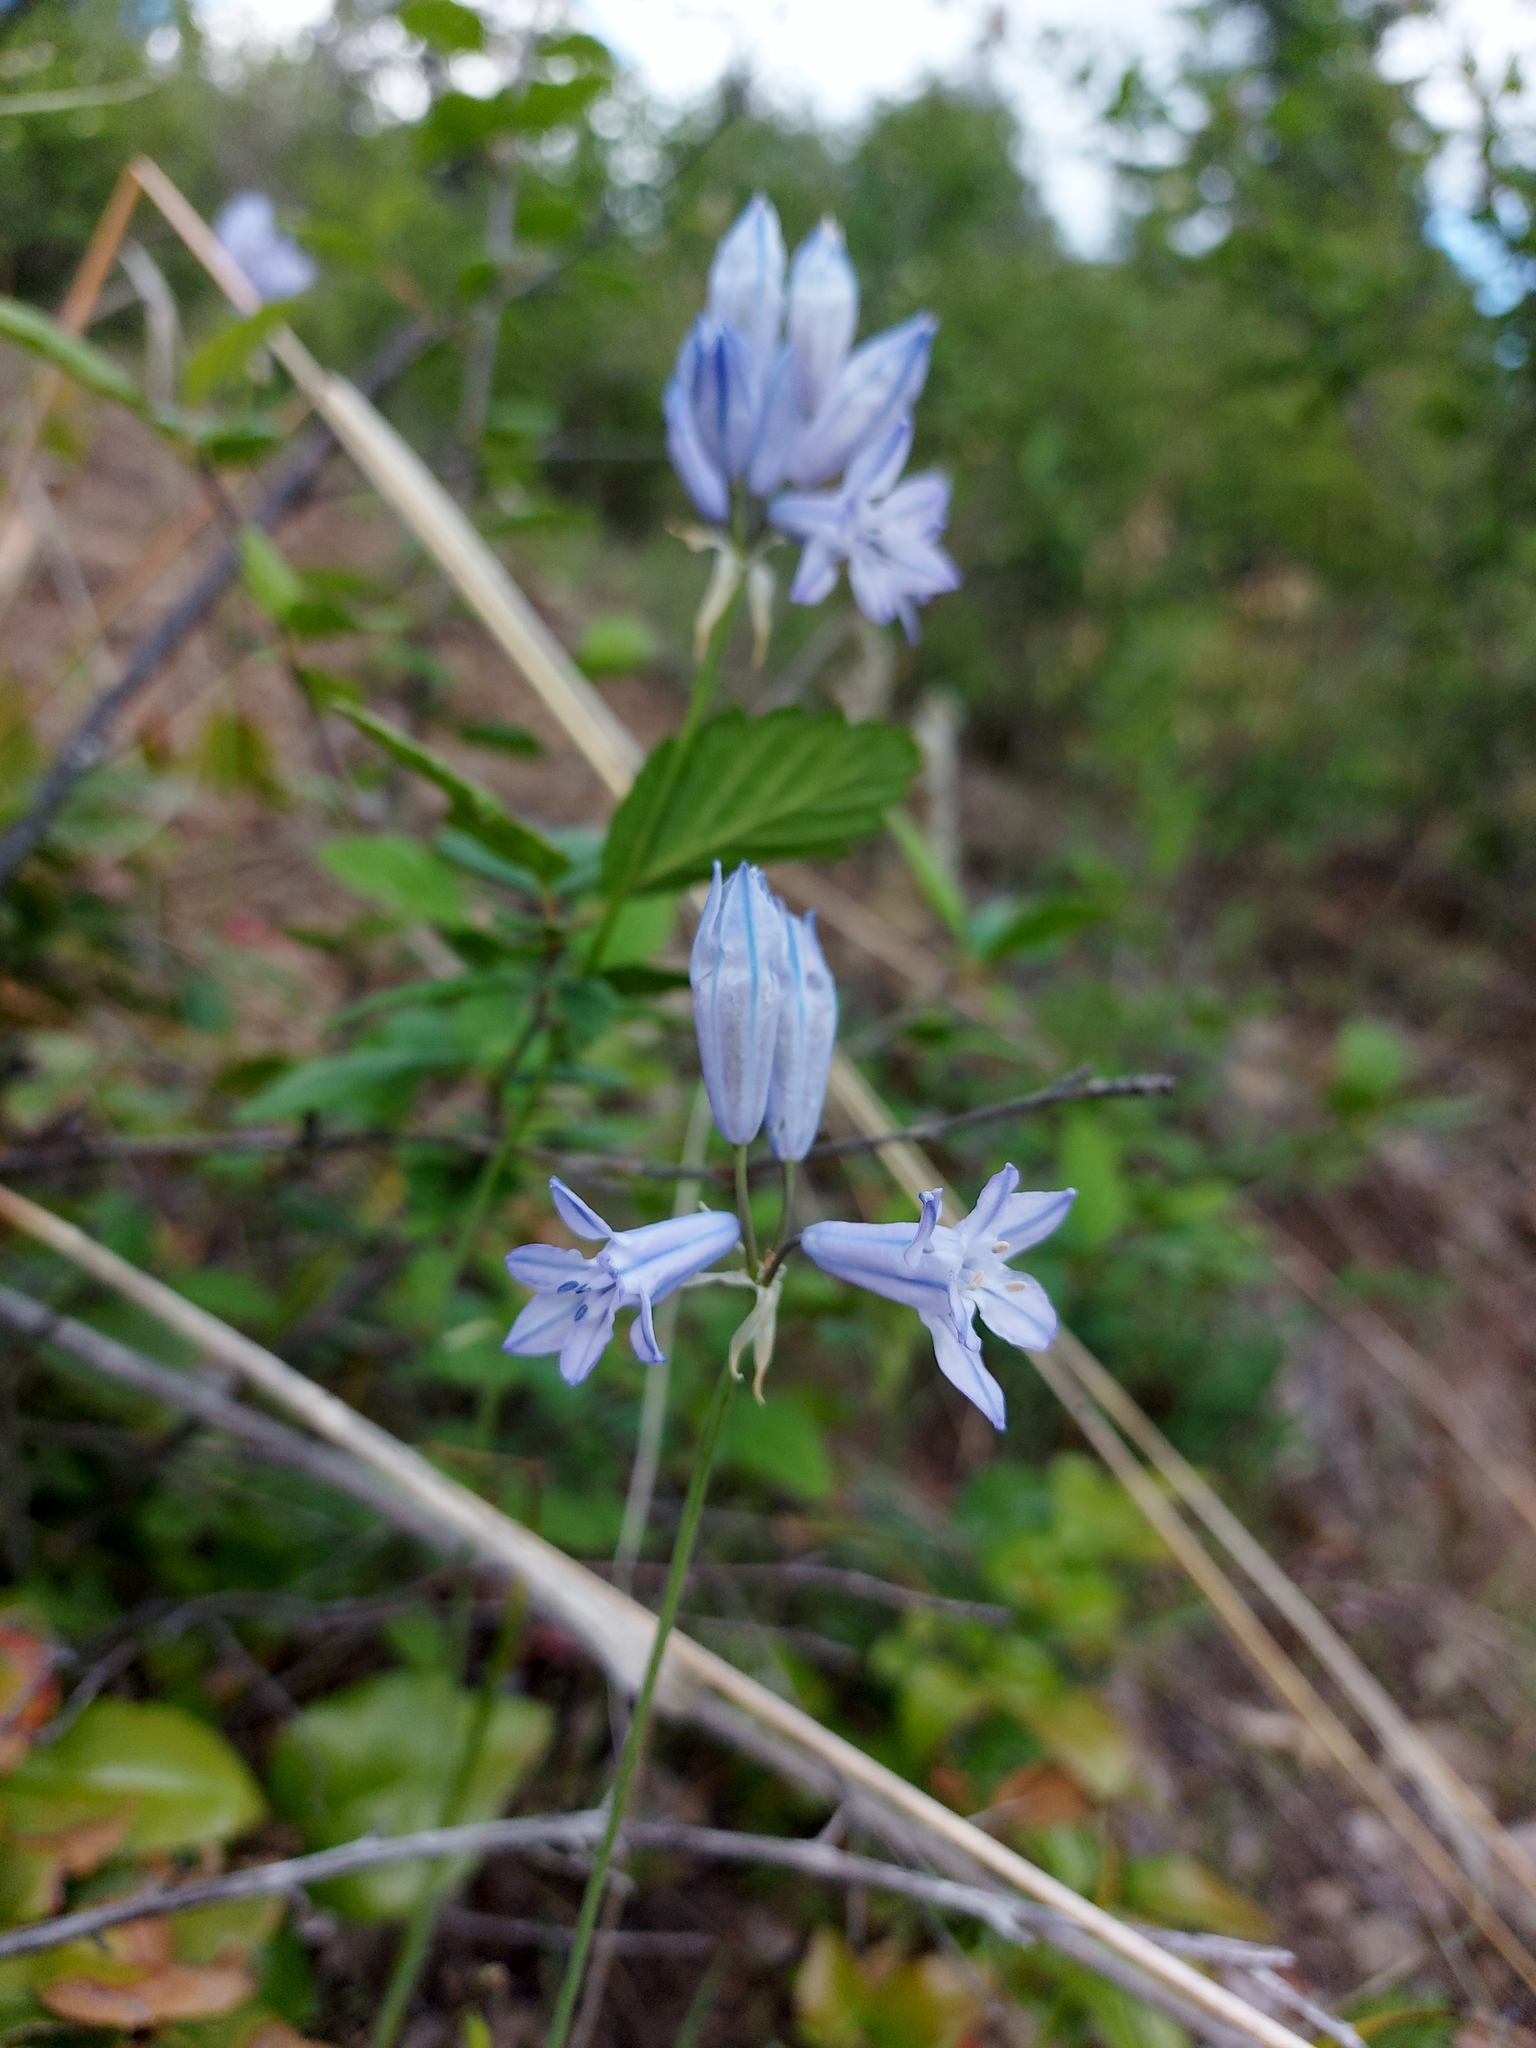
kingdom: Plantae
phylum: Tracheophyta
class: Liliopsida
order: Asparagales
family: Asparagaceae
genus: Triteleia
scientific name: Triteleia grandiflora
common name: Wild hyacinth
